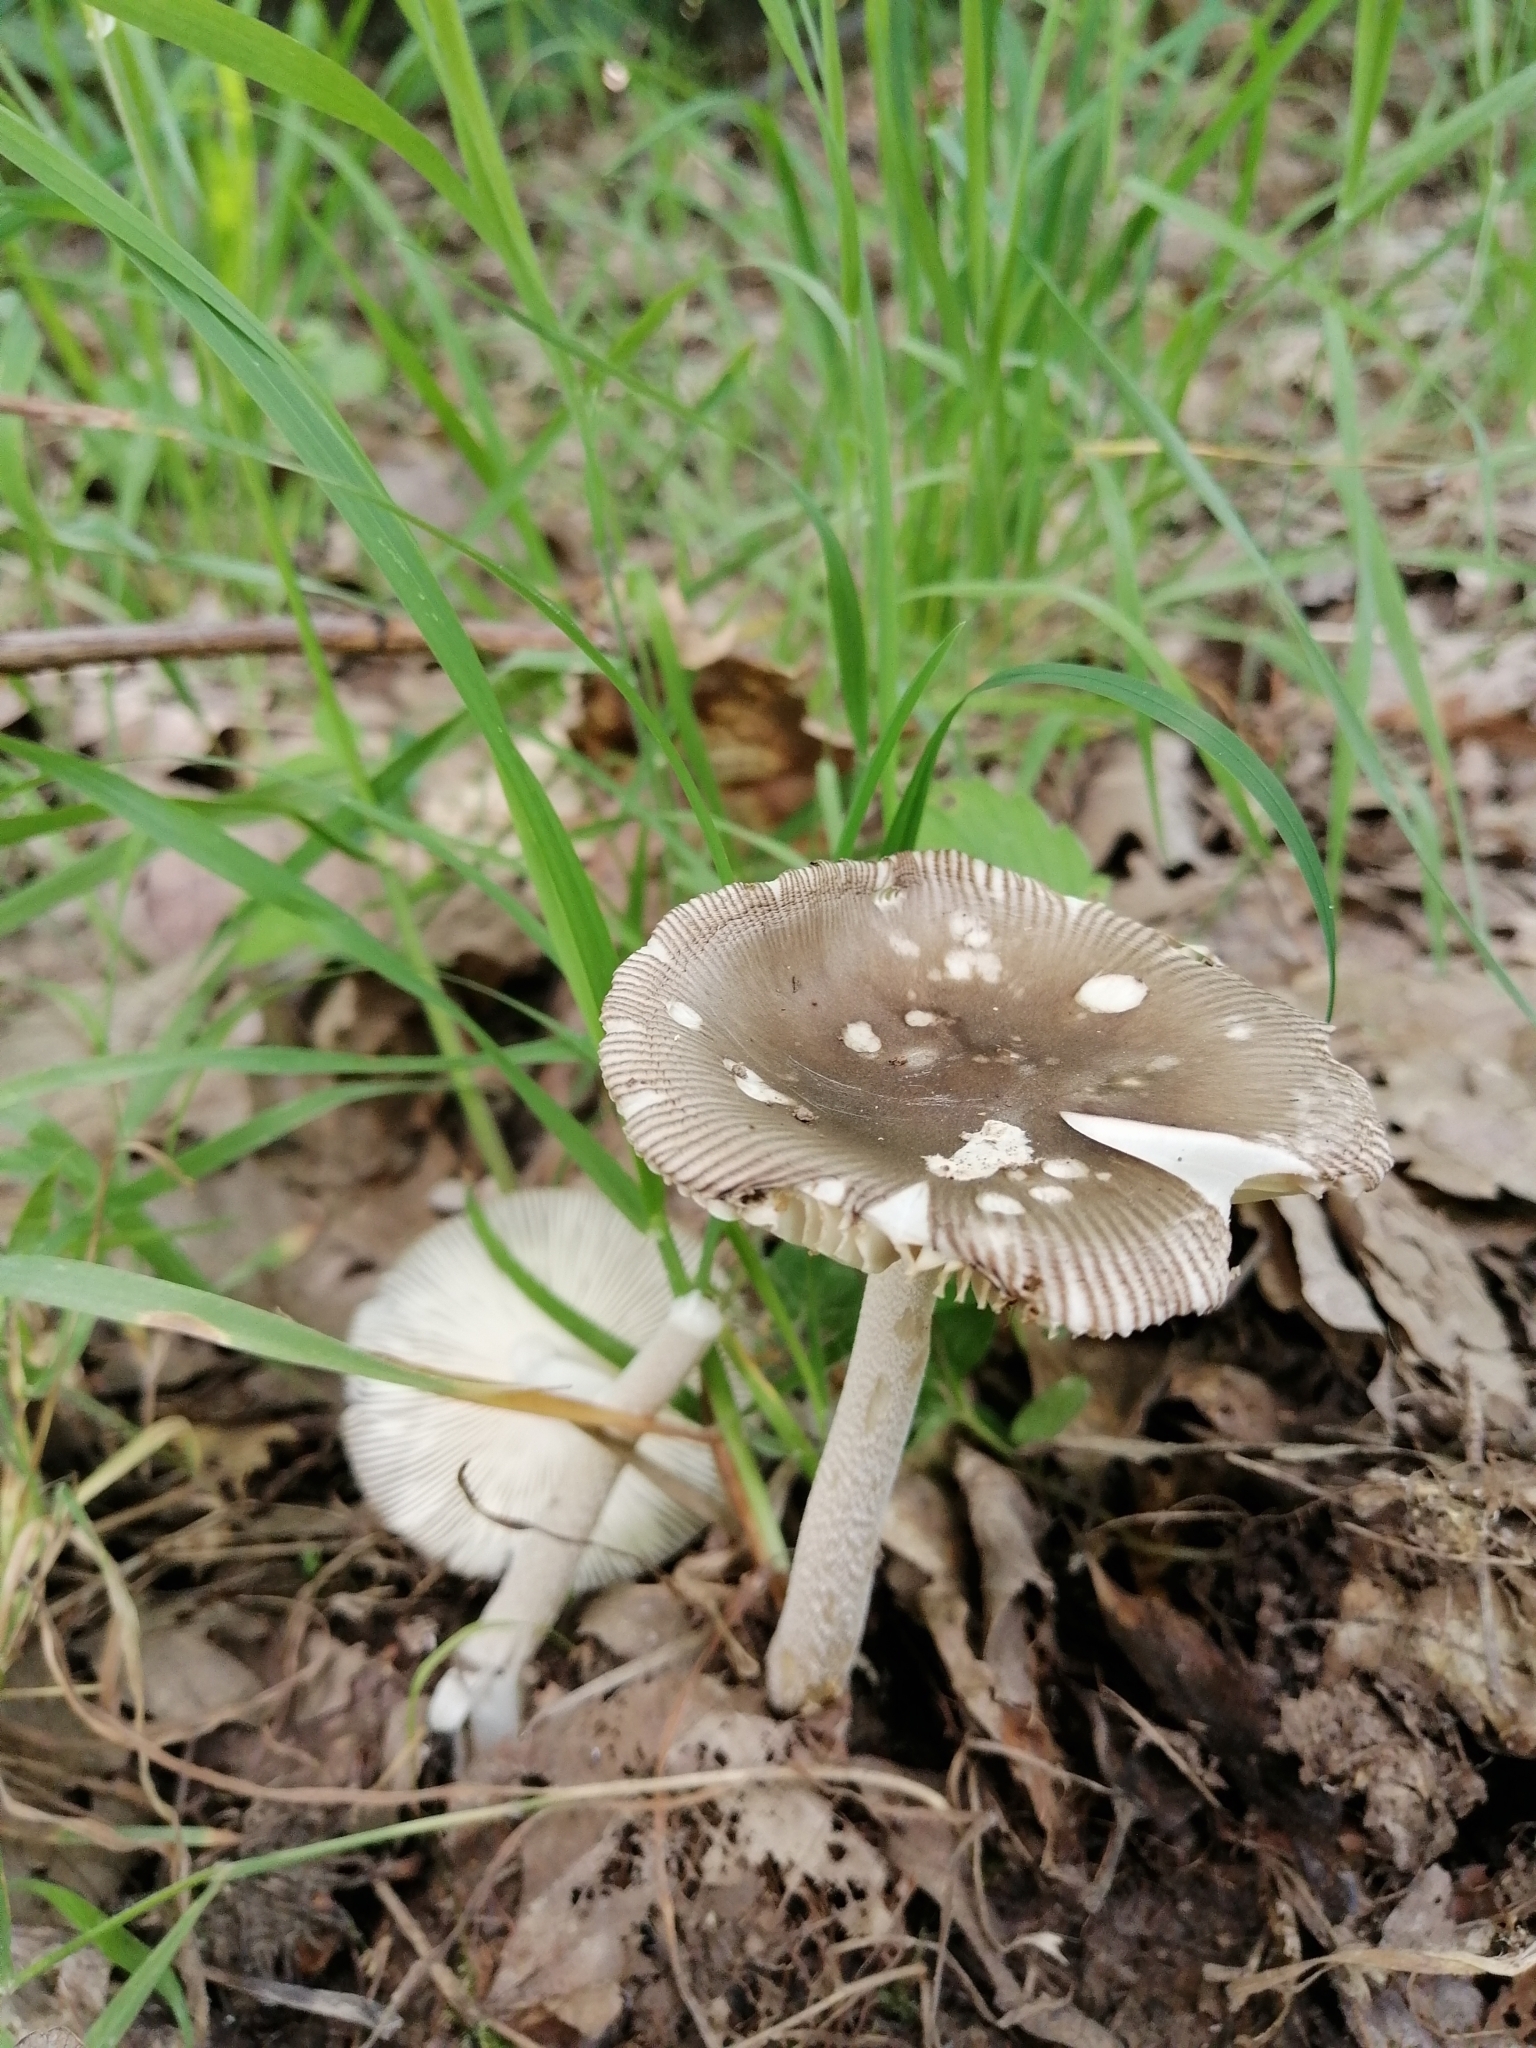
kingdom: Fungi
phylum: Basidiomycota
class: Agaricomycetes
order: Agaricales
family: Amanitaceae
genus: Amanita
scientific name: Amanita vaginata
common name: Grisette
